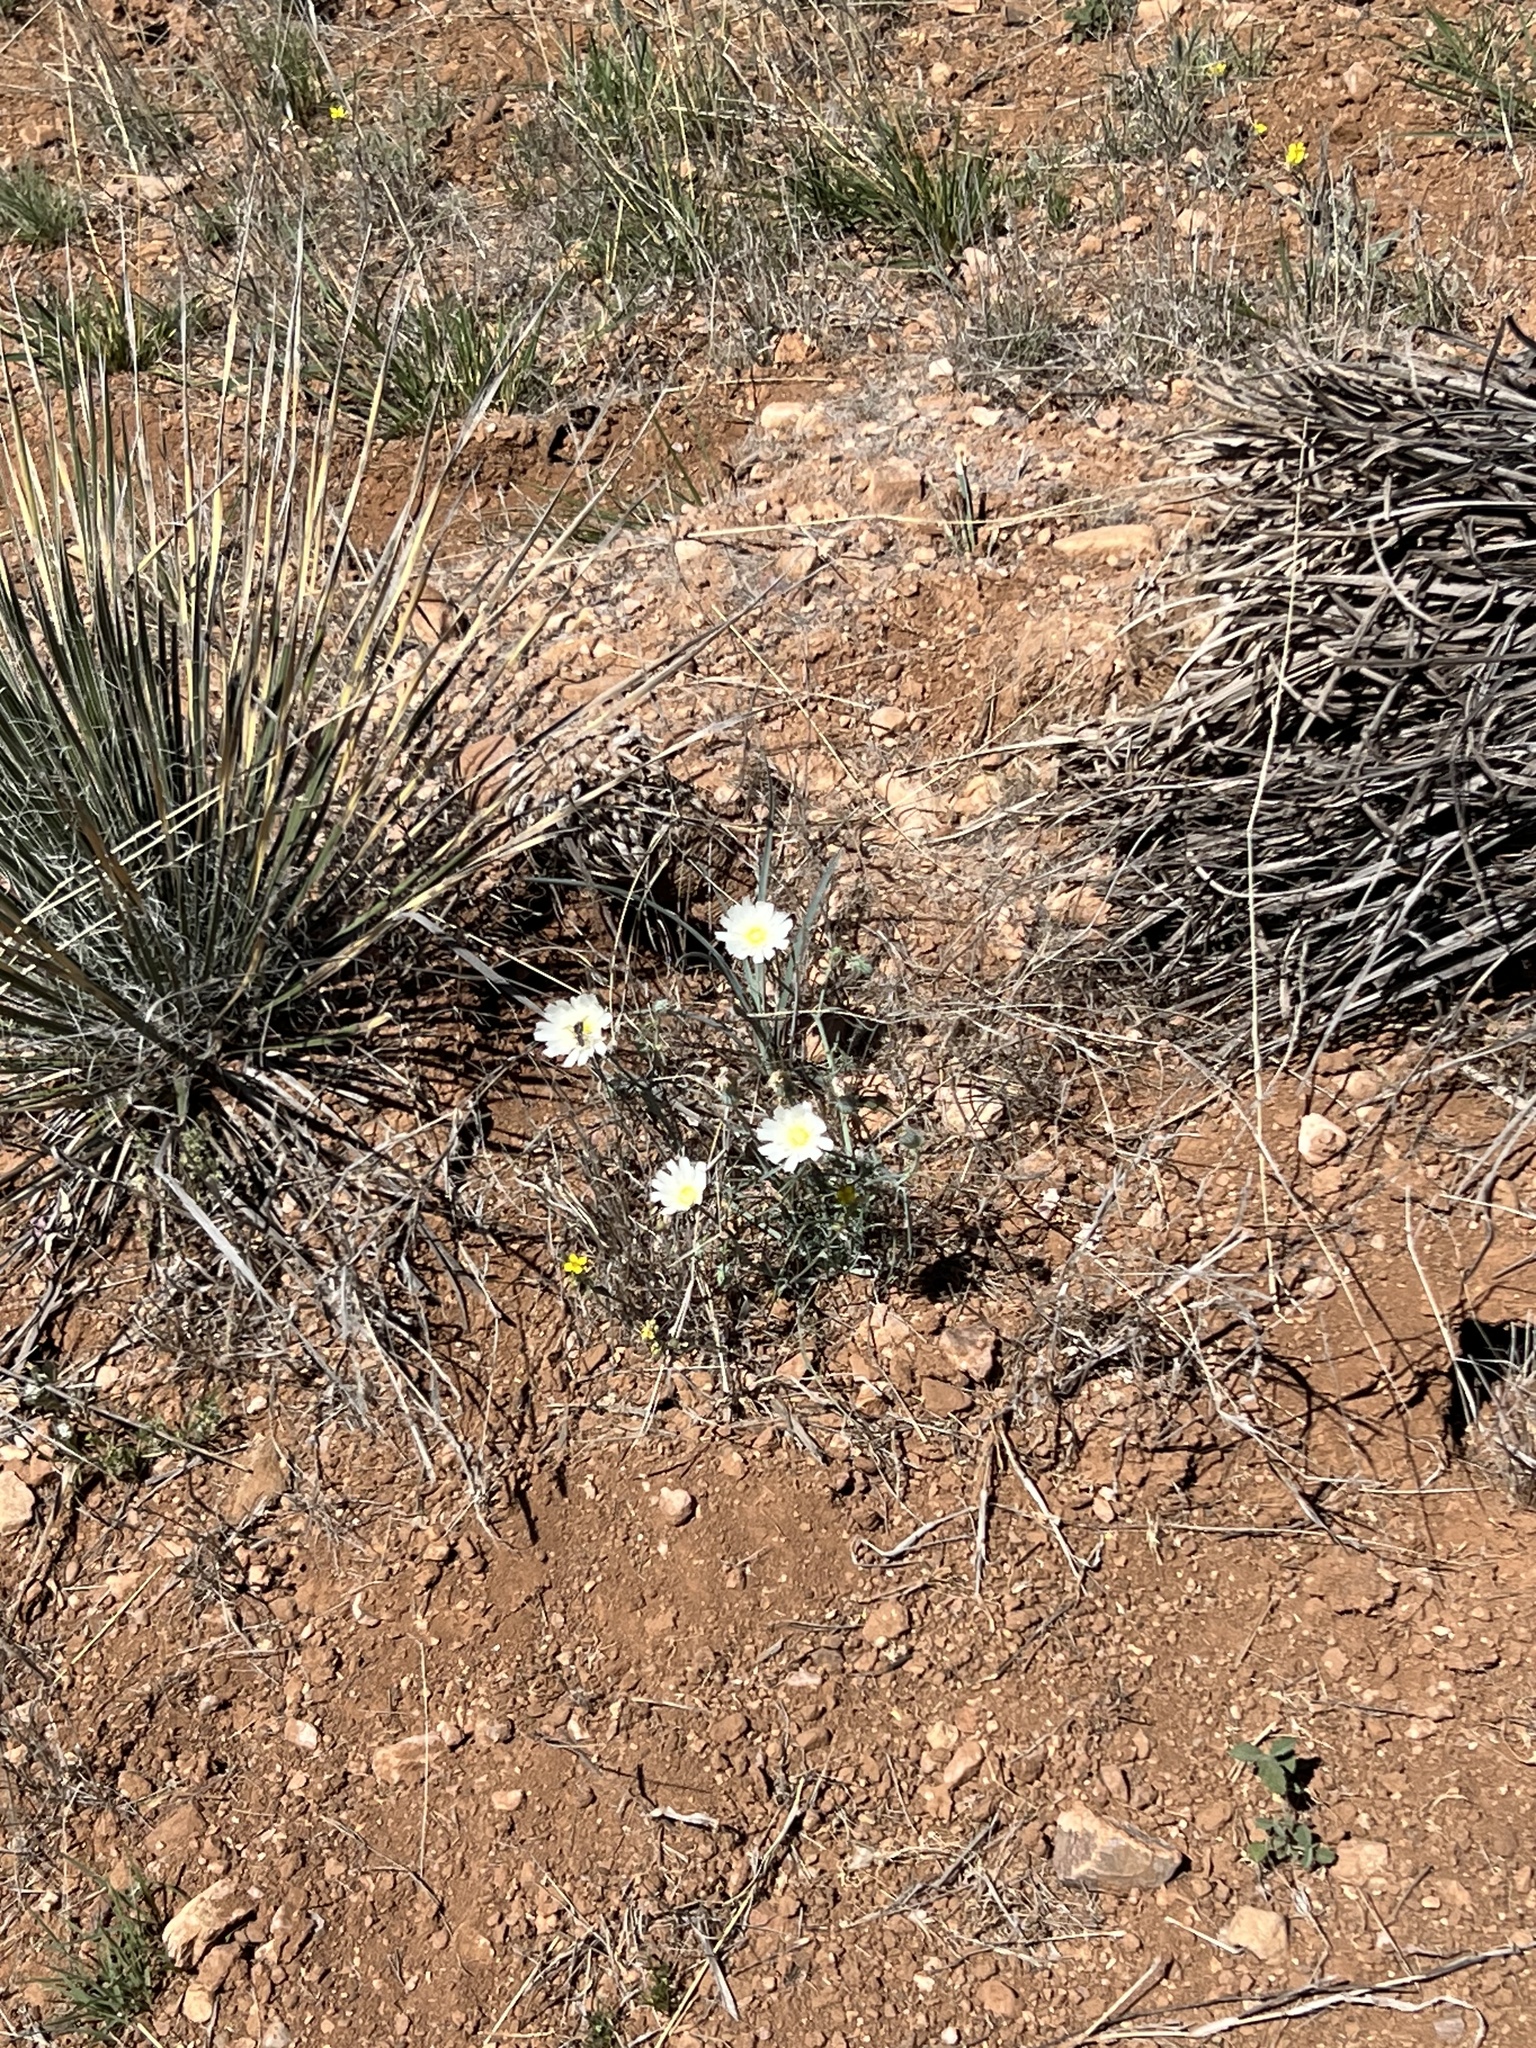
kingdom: Plantae
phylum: Tracheophyta
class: Magnoliopsida
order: Asterales
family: Asteraceae
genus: Rafinesquia
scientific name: Rafinesquia neomexicana
